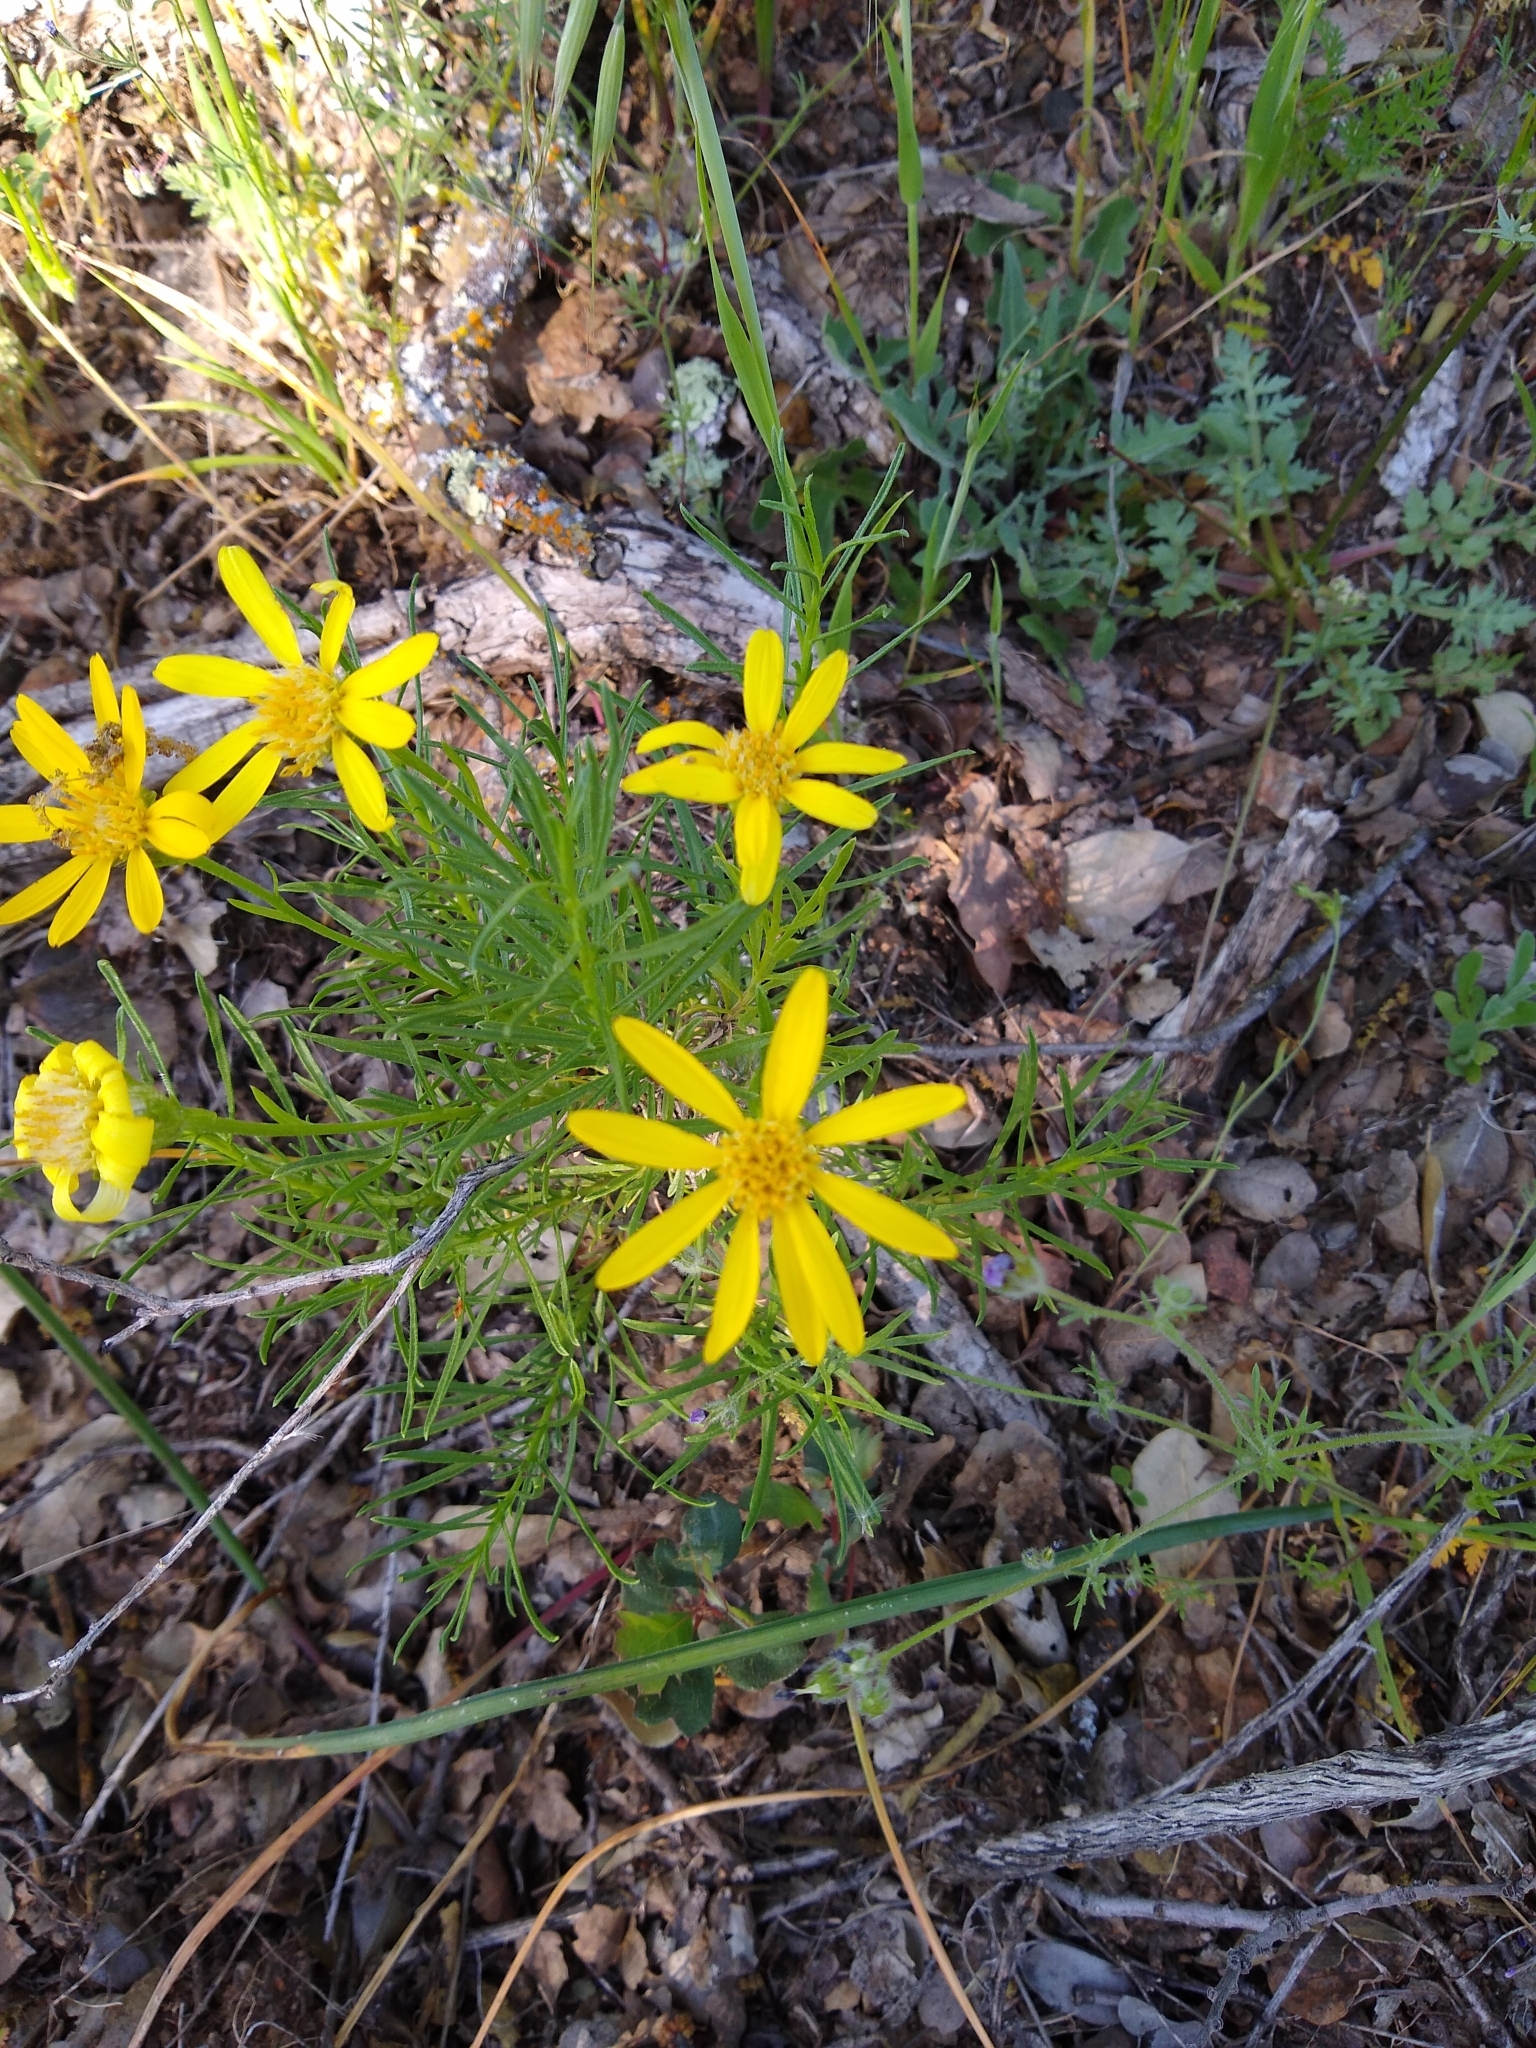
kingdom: Plantae
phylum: Tracheophyta
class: Magnoliopsida
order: Asterales
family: Asteraceae
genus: Ericameria
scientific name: Ericameria linearifolia
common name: Interior goldenbush
